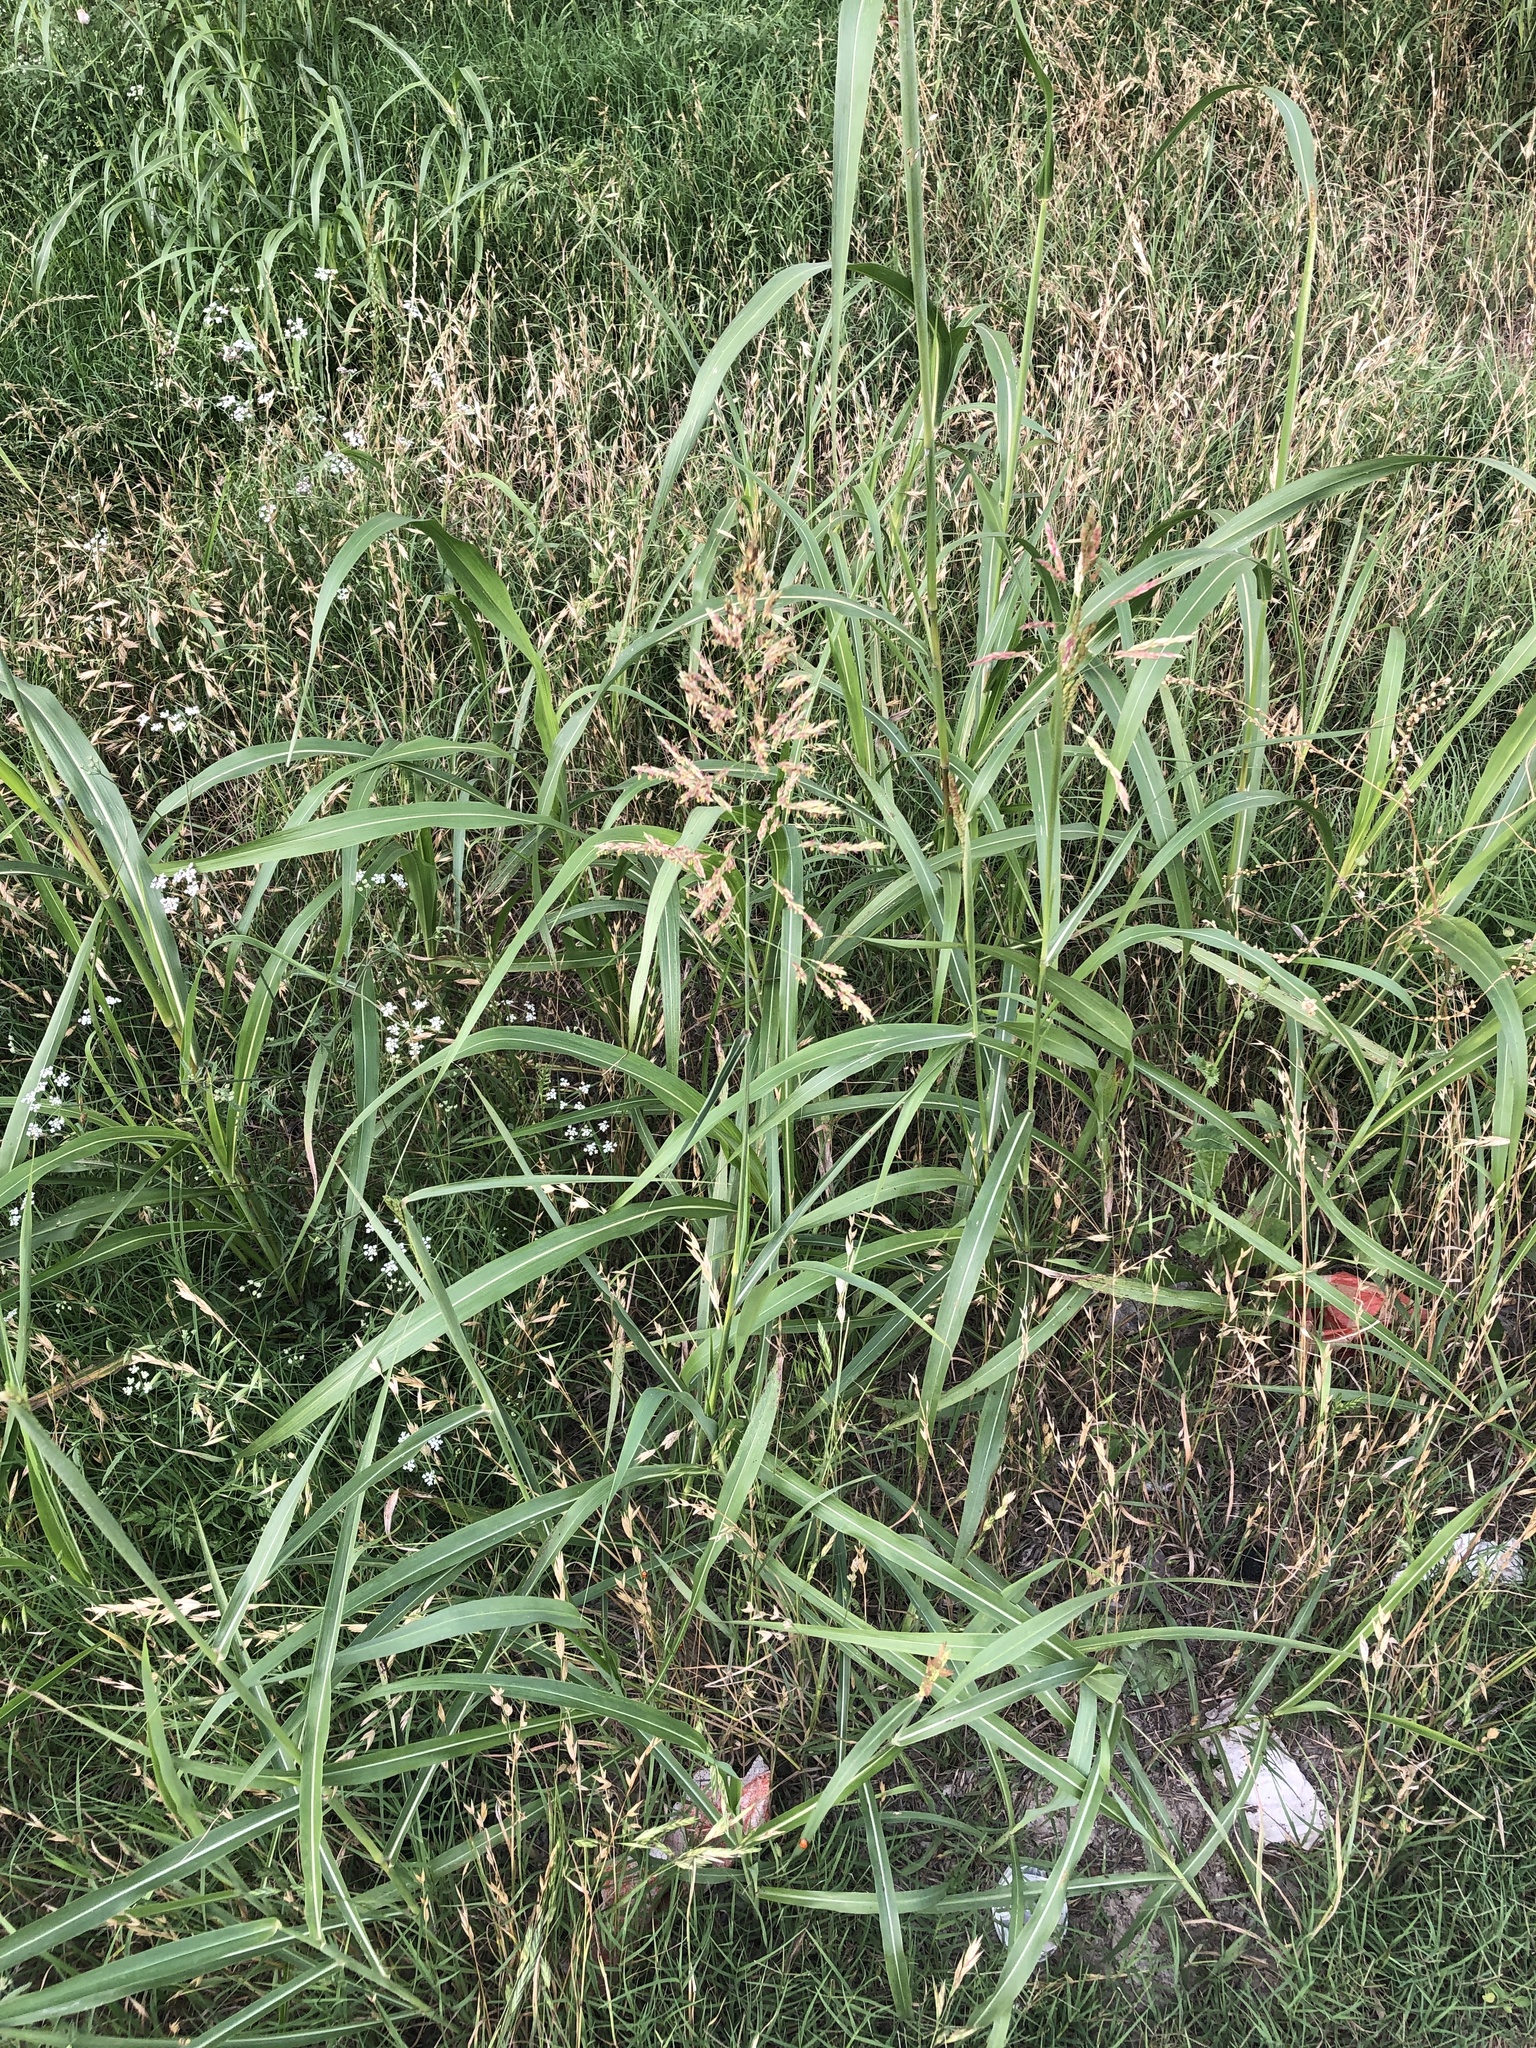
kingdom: Plantae
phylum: Tracheophyta
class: Liliopsida
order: Poales
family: Poaceae
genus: Sorghum
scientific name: Sorghum halepense
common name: Johnson-grass
